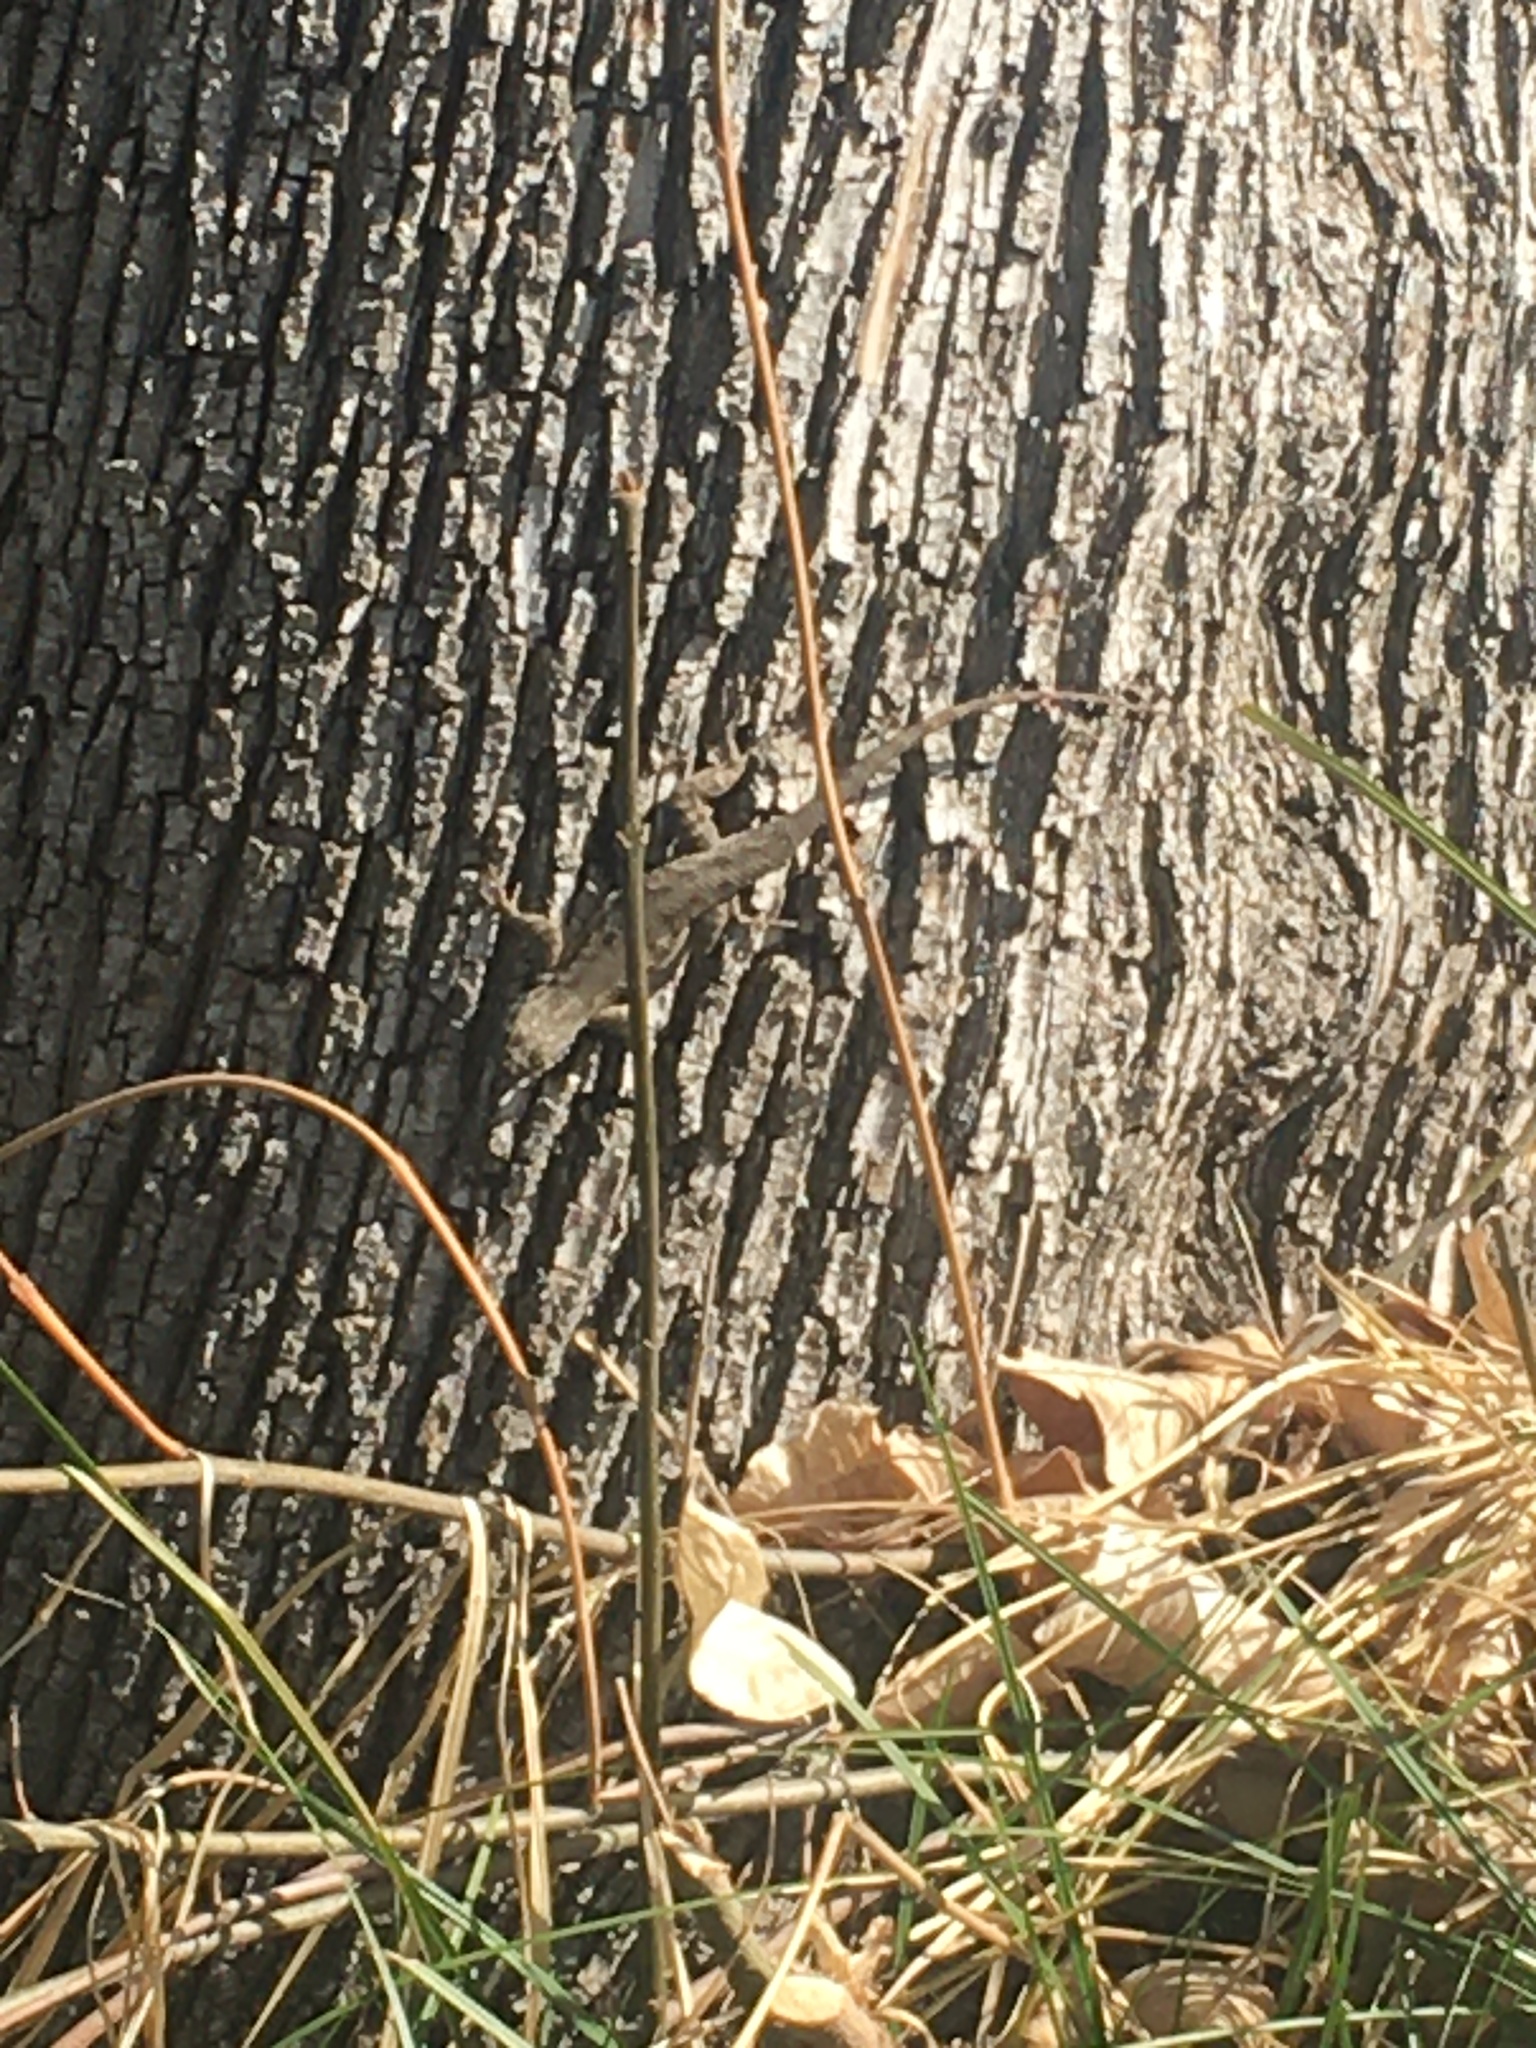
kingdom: Animalia
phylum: Chordata
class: Squamata
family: Phrynosomatidae
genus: Sceloporus
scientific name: Sceloporus occidentalis
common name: Western fence lizard
